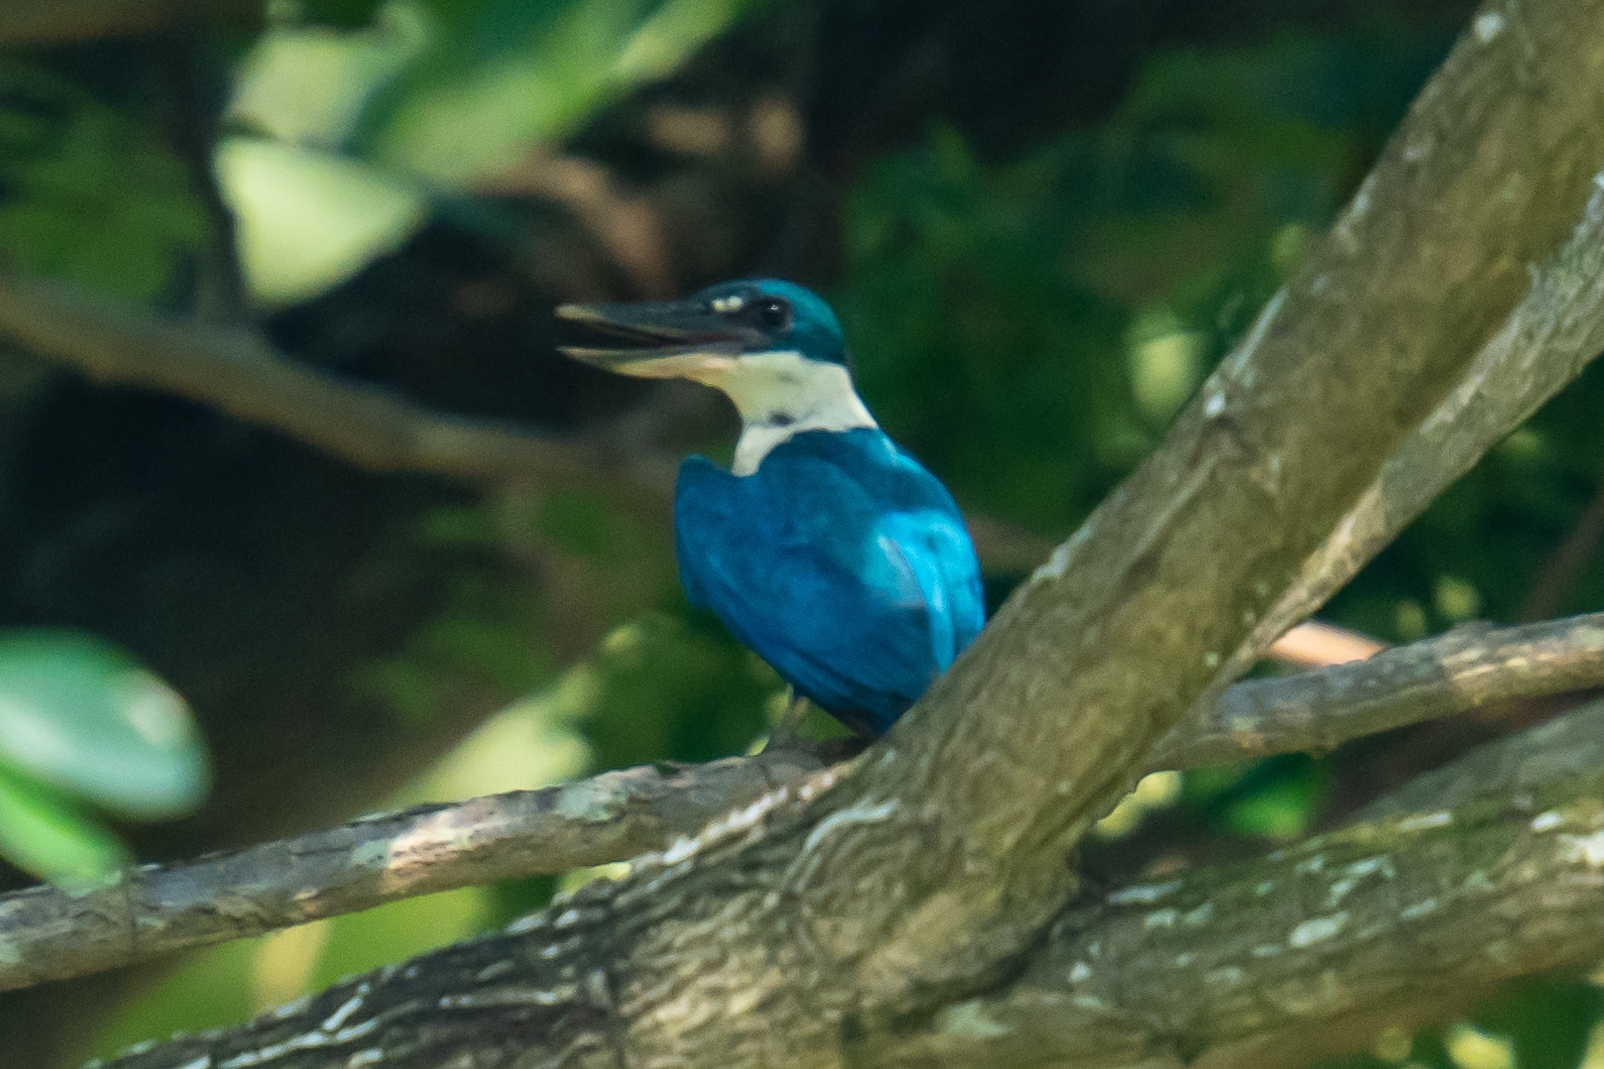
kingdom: Animalia
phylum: Chordata
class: Aves
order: Coraciiformes
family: Alcedinidae
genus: Todiramphus
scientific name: Todiramphus chloris
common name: Collared kingfisher
